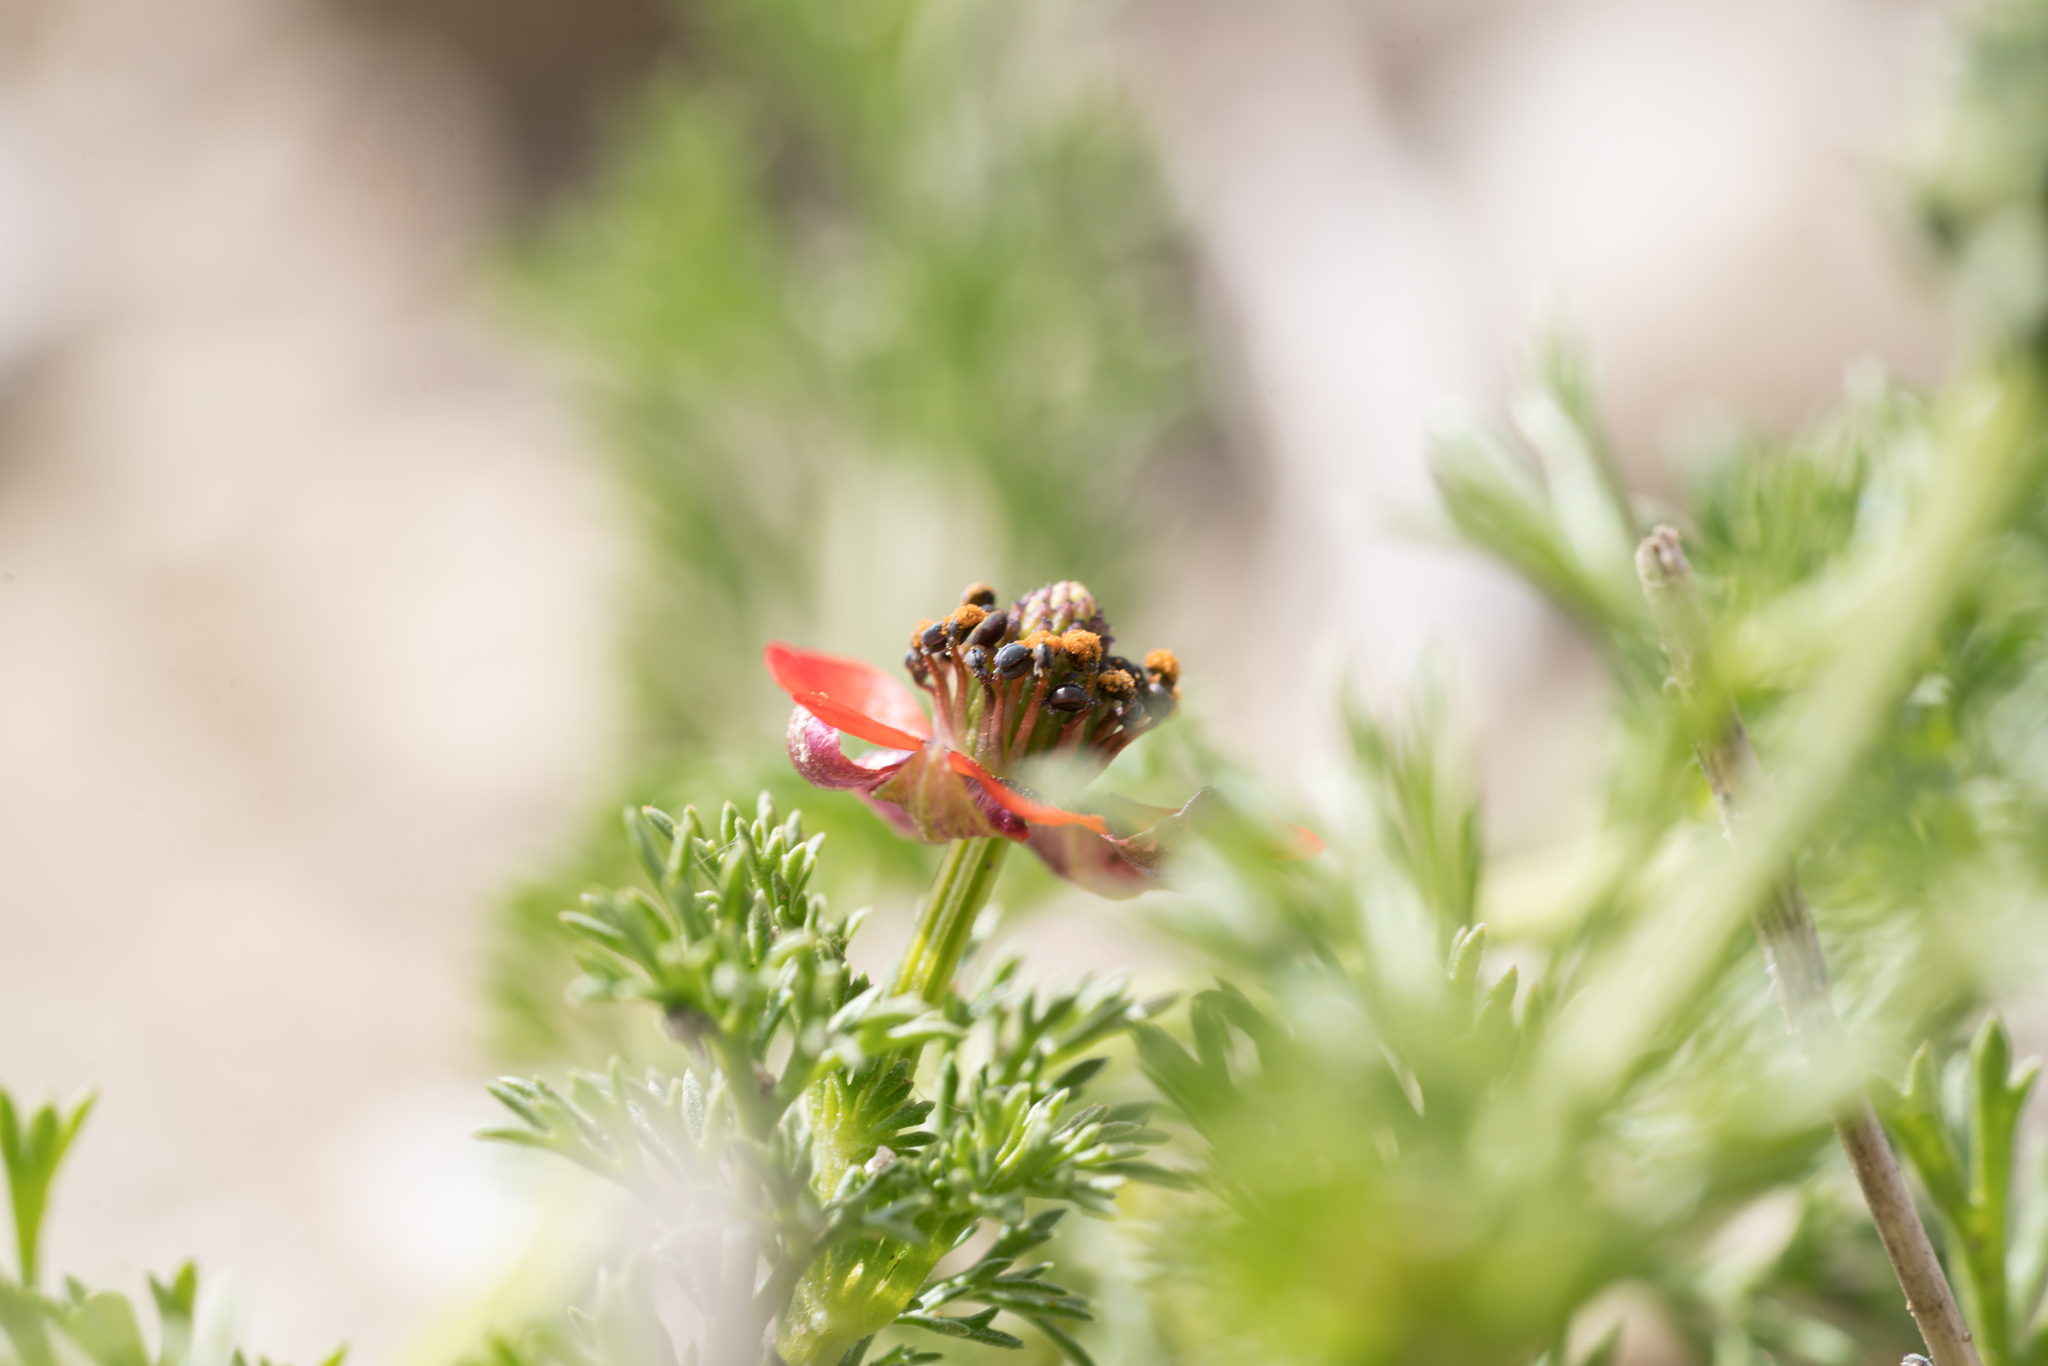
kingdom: Plantae
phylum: Tracheophyta
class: Magnoliopsida
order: Ranunculales
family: Ranunculaceae
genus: Adonis
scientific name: Adonis microcarpa
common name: Pheasant's-eye
